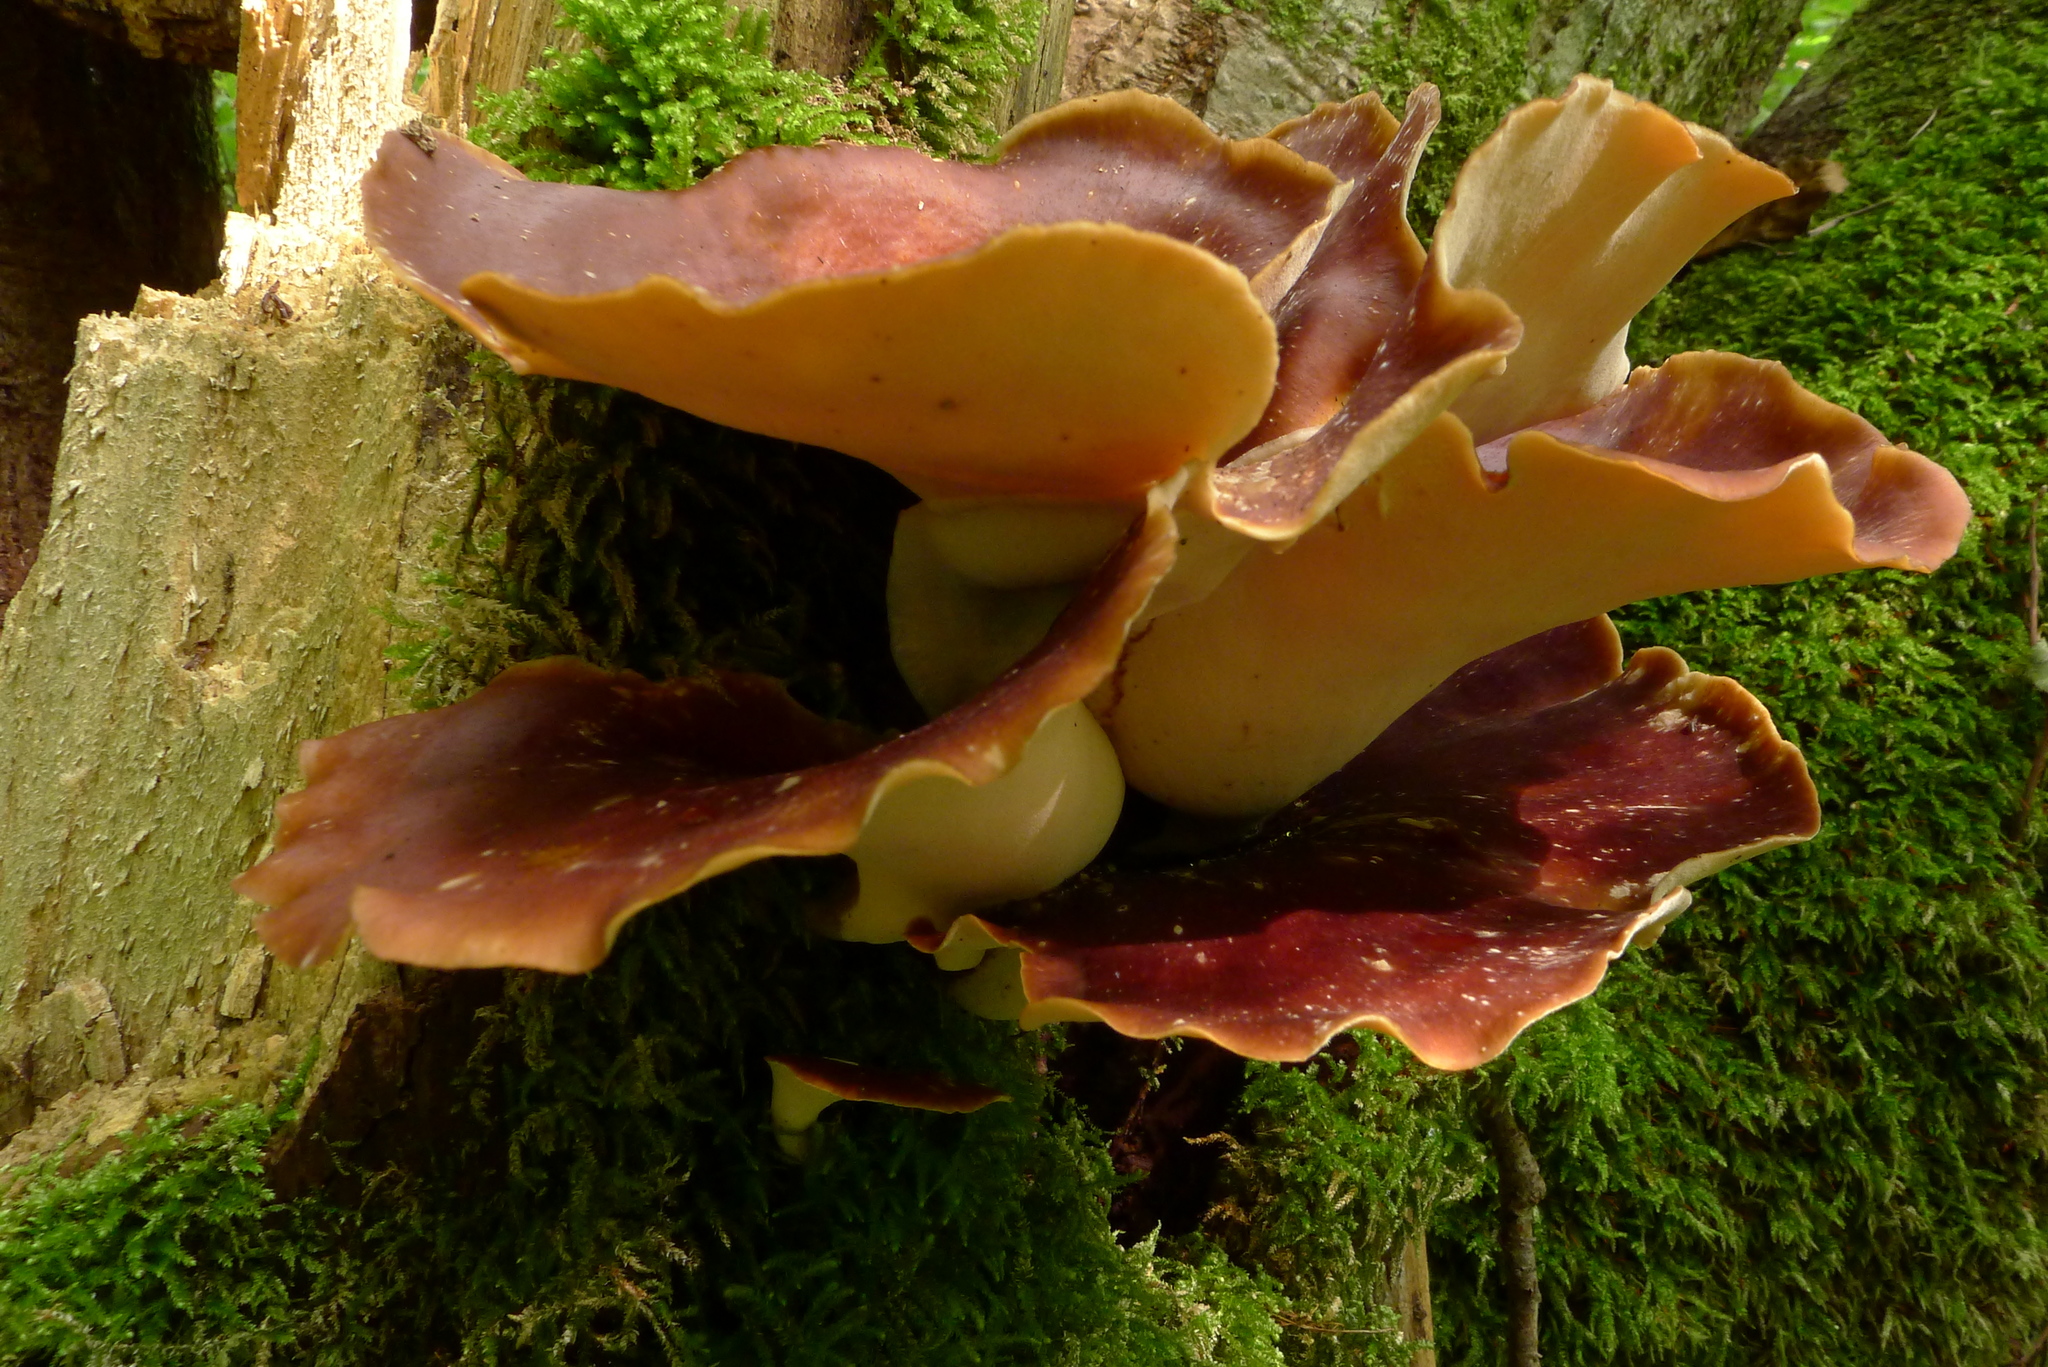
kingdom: Fungi
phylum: Basidiomycota
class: Agaricomycetes
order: Polyporales
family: Polyporaceae
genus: Picipes
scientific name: Picipes badius
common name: Bay polypore
